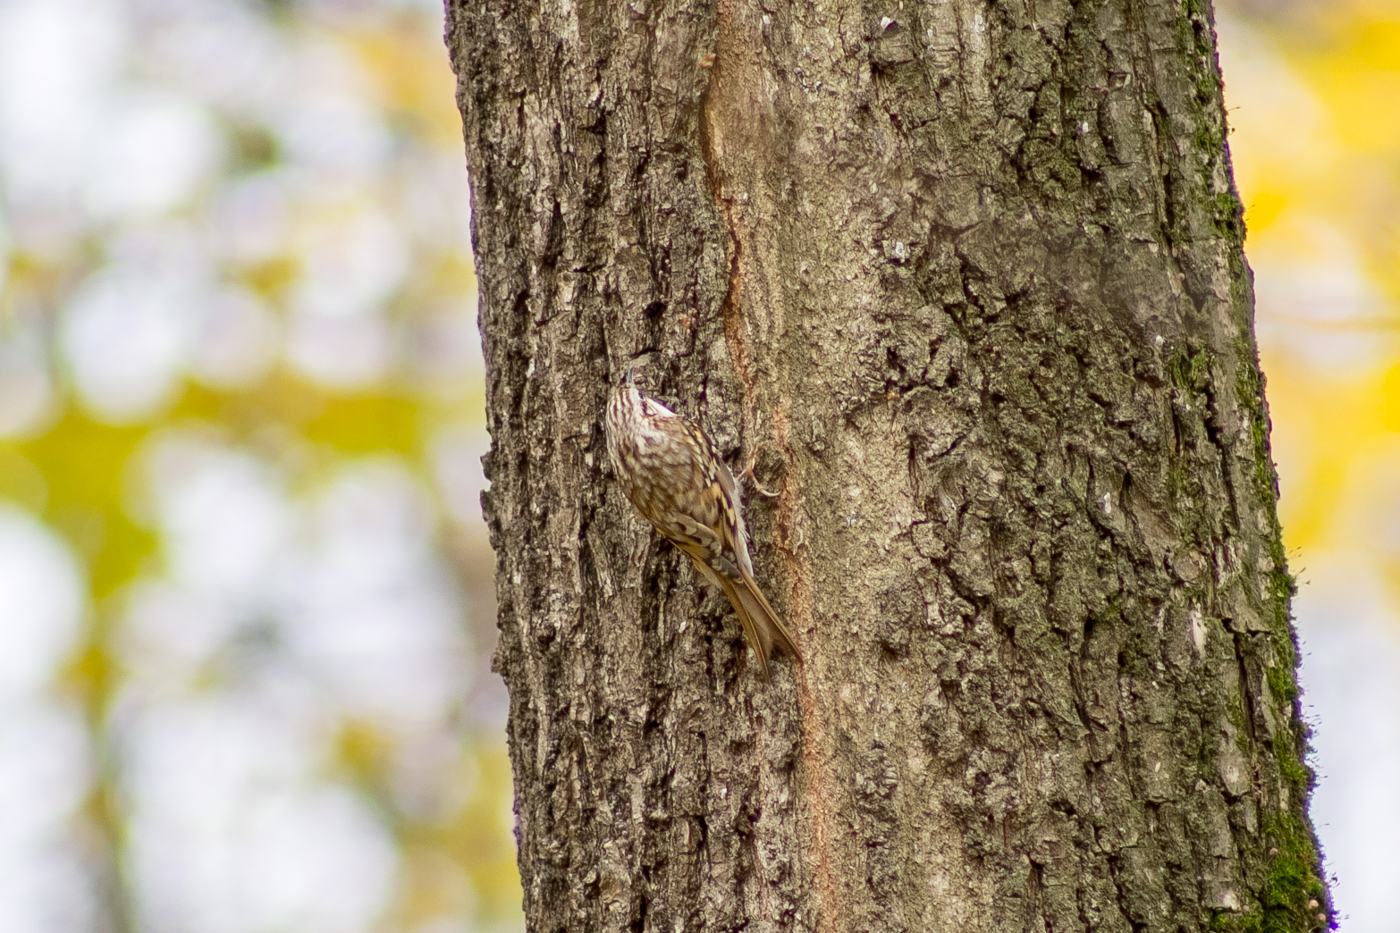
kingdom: Animalia
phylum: Chordata
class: Aves
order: Passeriformes
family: Certhiidae
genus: Certhia
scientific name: Certhia familiaris
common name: Eurasian treecreeper
